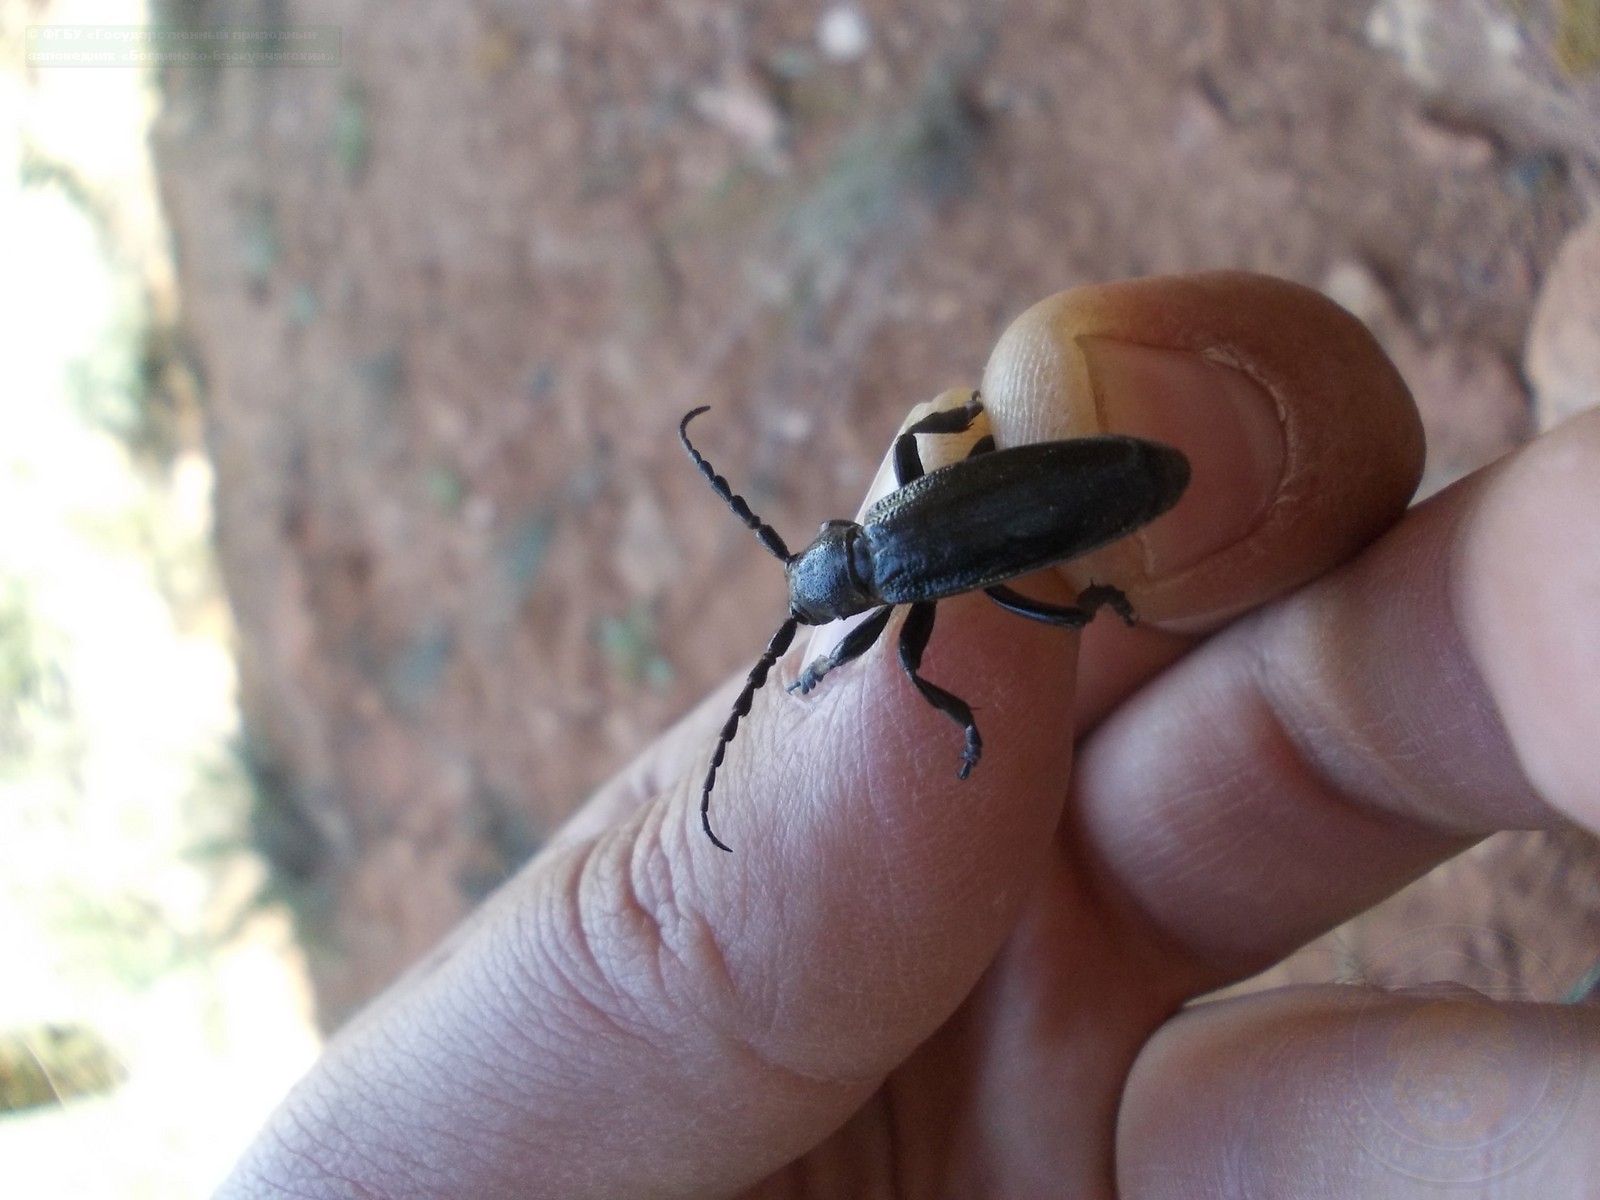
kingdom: Animalia
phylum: Arthropoda
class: Insecta
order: Coleoptera
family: Cerambycidae
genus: Dorcadion
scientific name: Dorcadion carinatum
